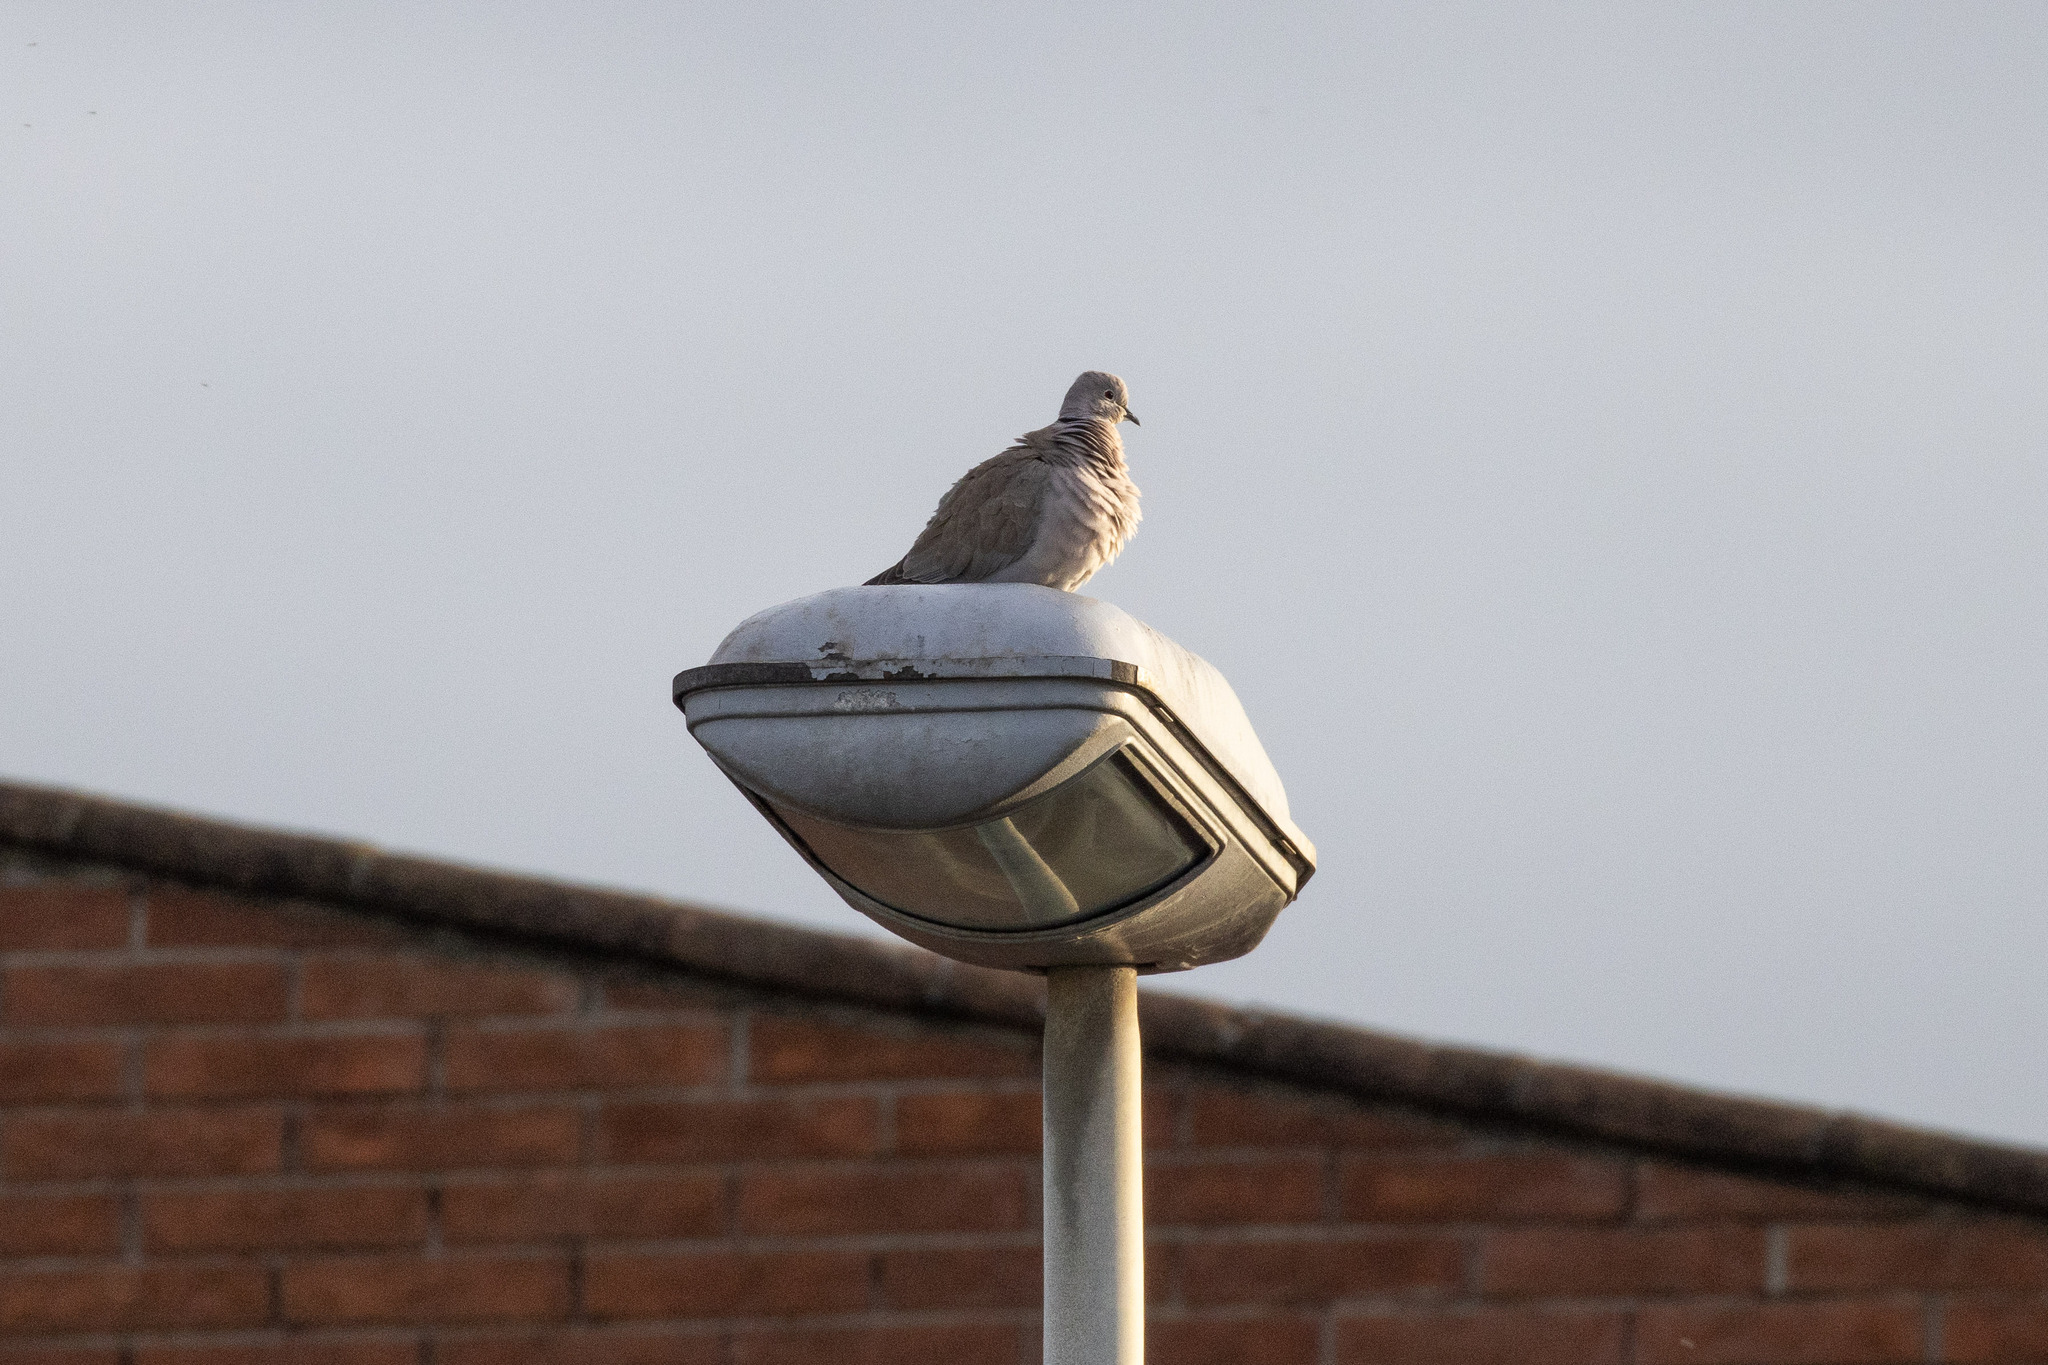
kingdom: Animalia
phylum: Chordata
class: Aves
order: Columbiformes
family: Columbidae
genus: Streptopelia
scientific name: Streptopelia decaocto
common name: Eurasian collared dove
